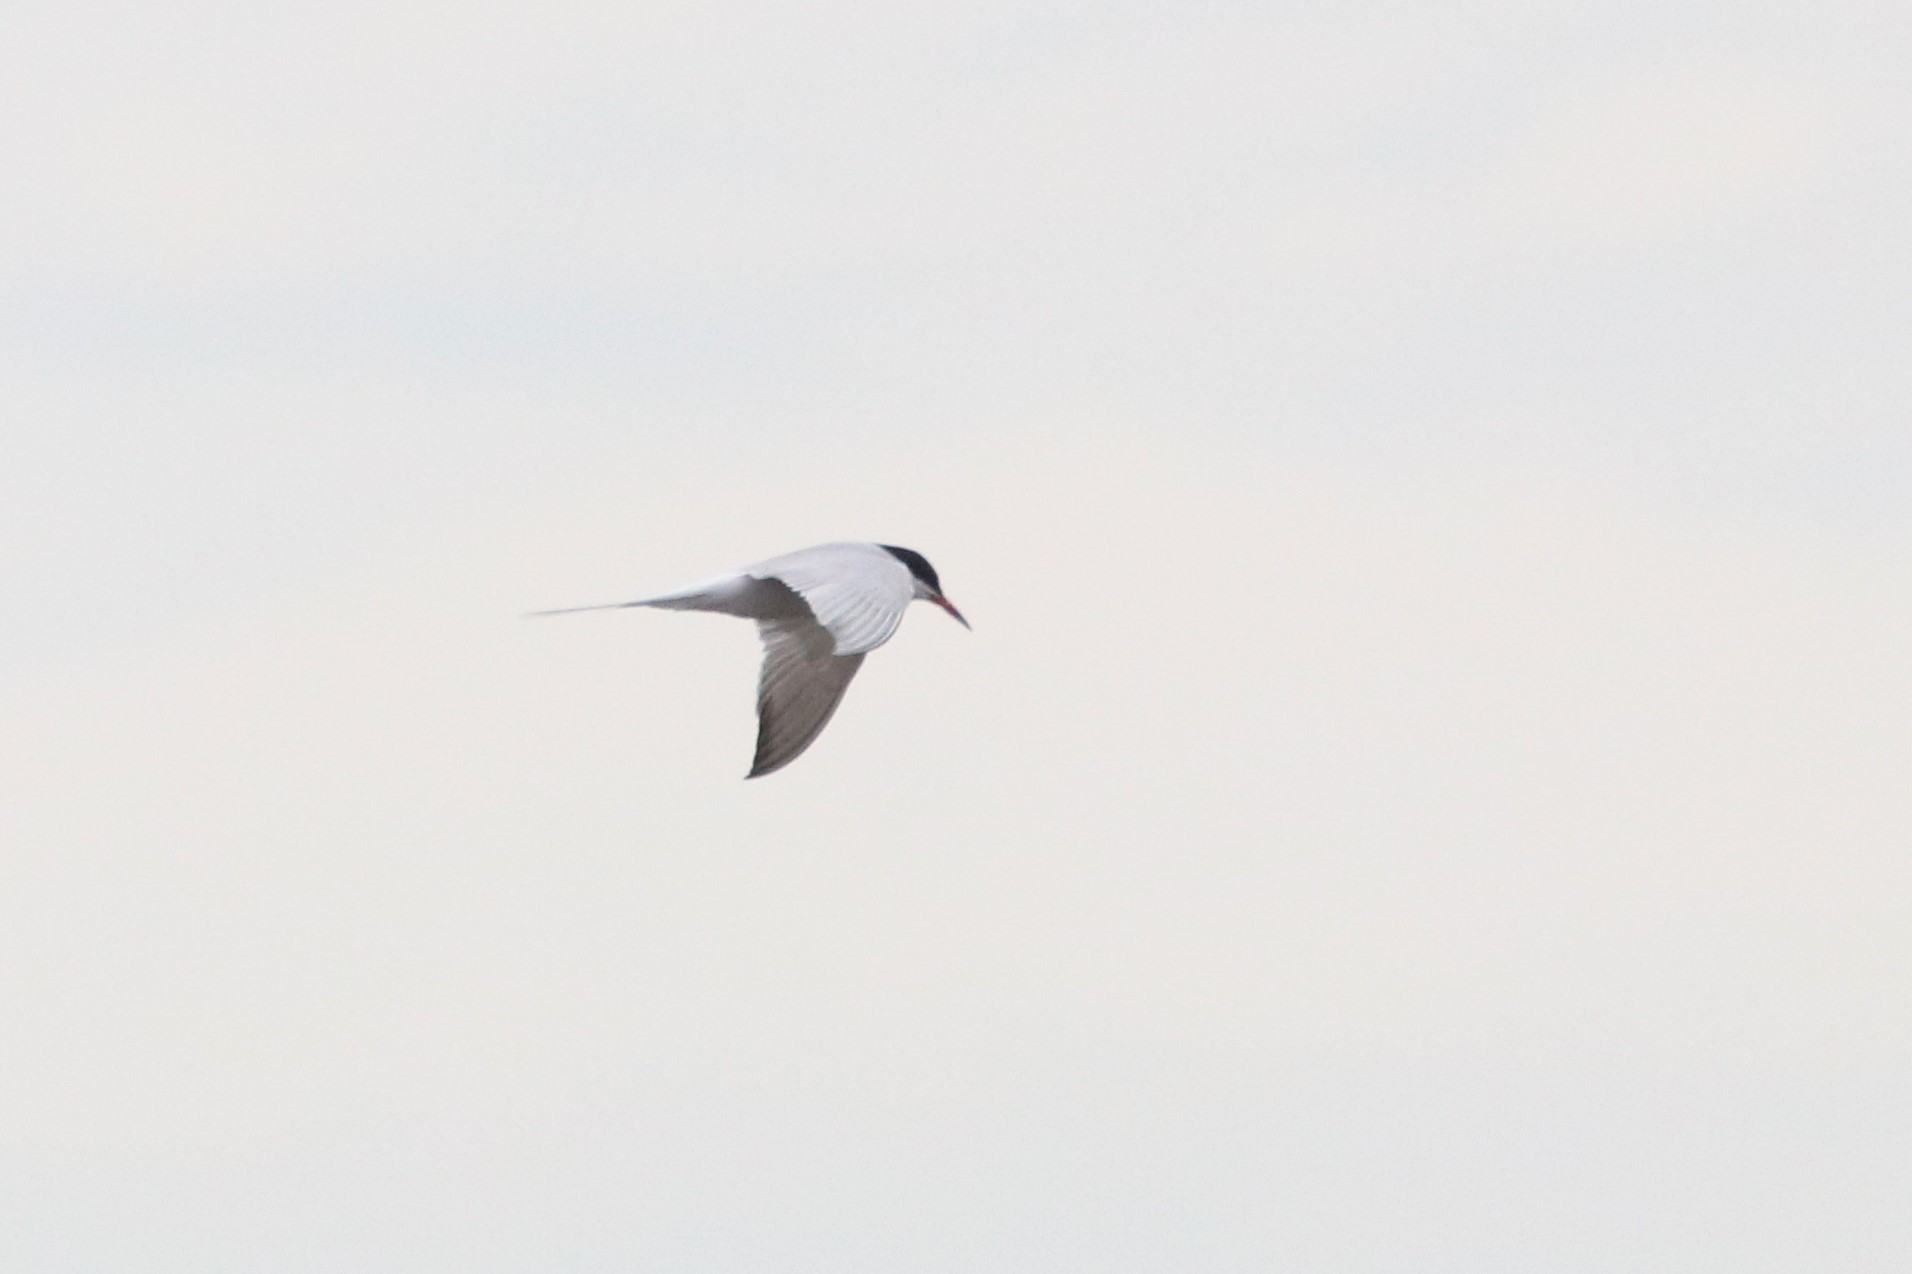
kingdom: Animalia
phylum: Chordata
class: Aves
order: Charadriiformes
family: Laridae
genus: Sterna
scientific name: Sterna hirundo
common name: Common tern
